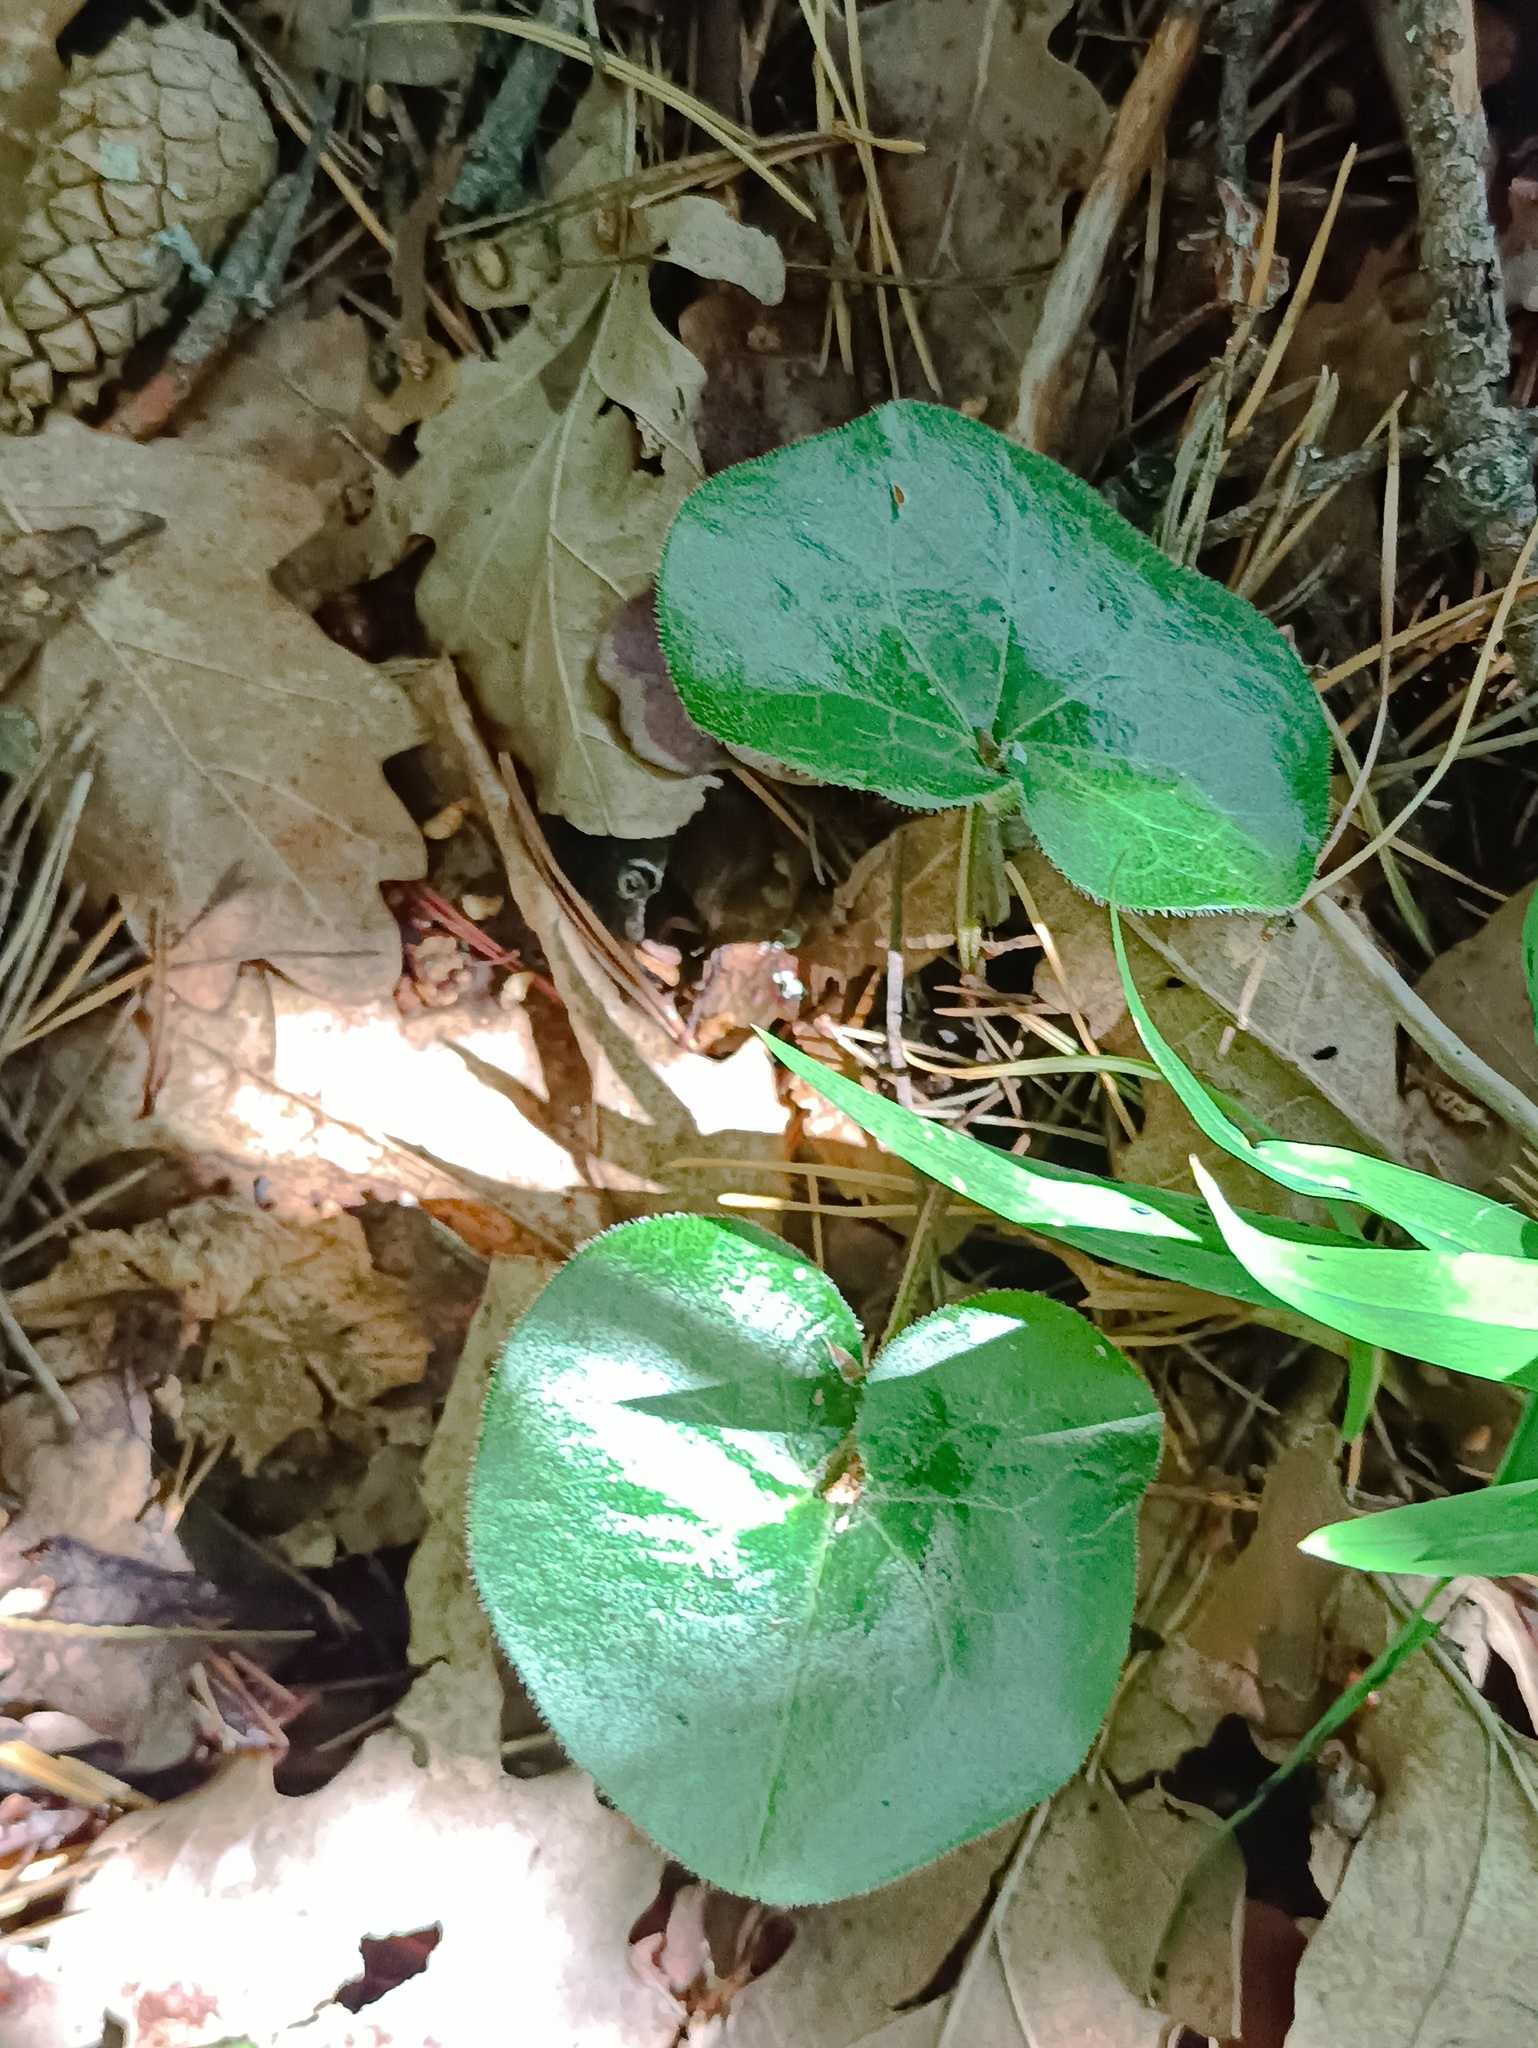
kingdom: Plantae
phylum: Tracheophyta
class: Magnoliopsida
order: Piperales
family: Aristolochiaceae
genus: Asarum
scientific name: Asarum europaeum
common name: Asarabacca
